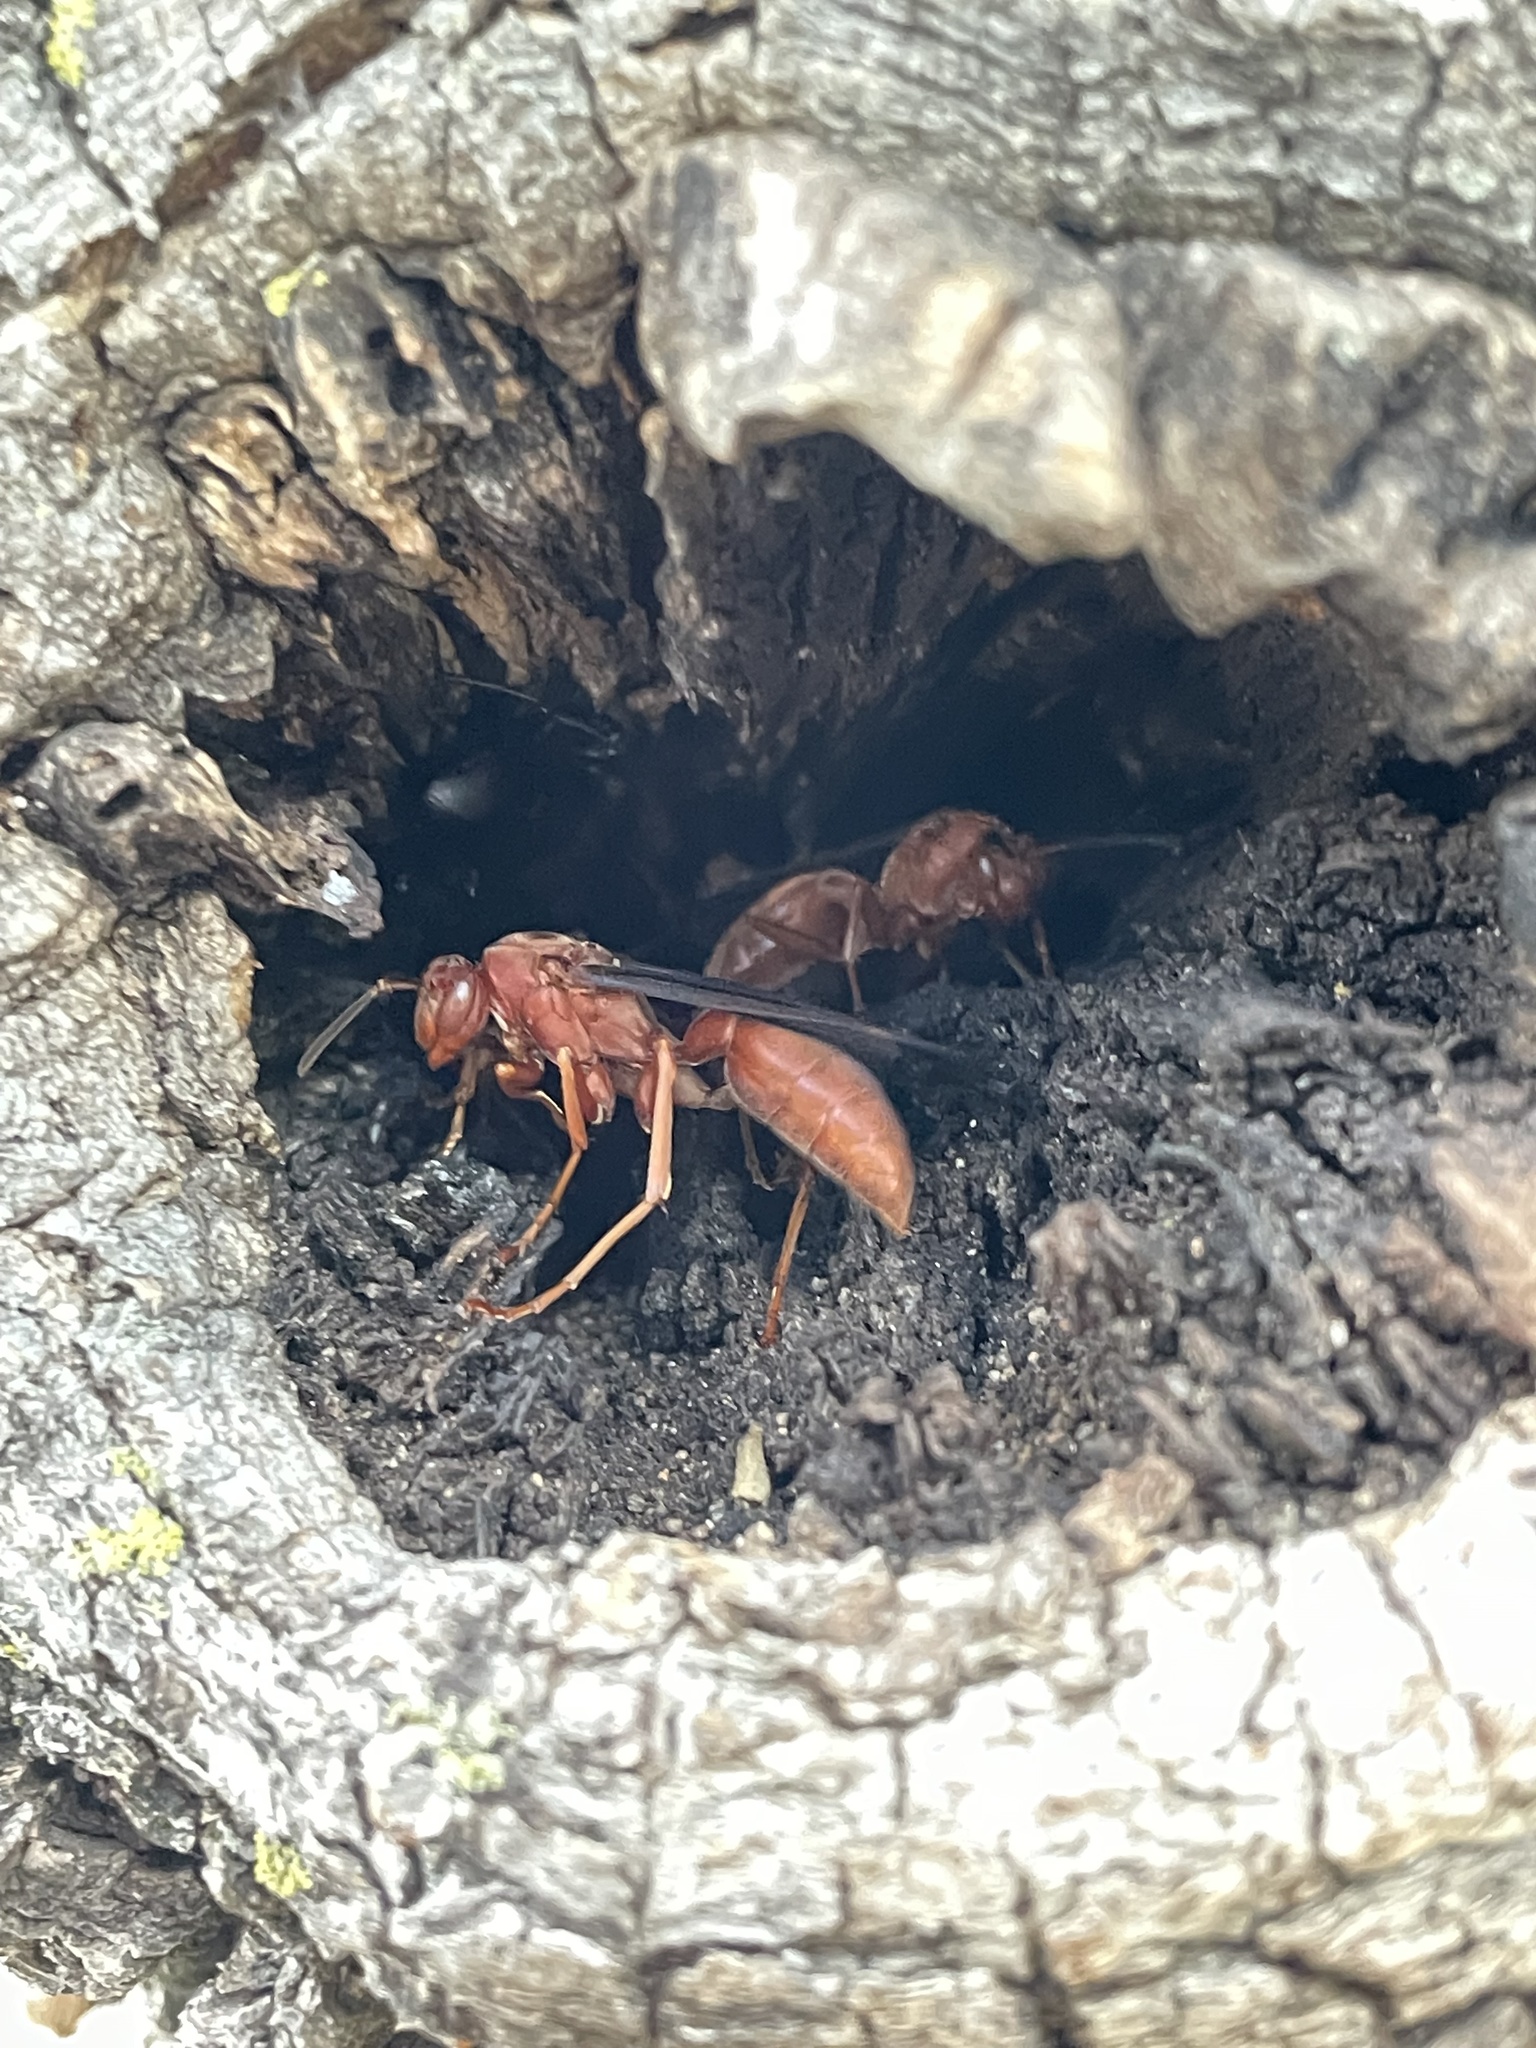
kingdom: Animalia
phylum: Arthropoda
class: Insecta
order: Hymenoptera
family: Vespidae
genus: Fuscopolistes
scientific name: Fuscopolistes
